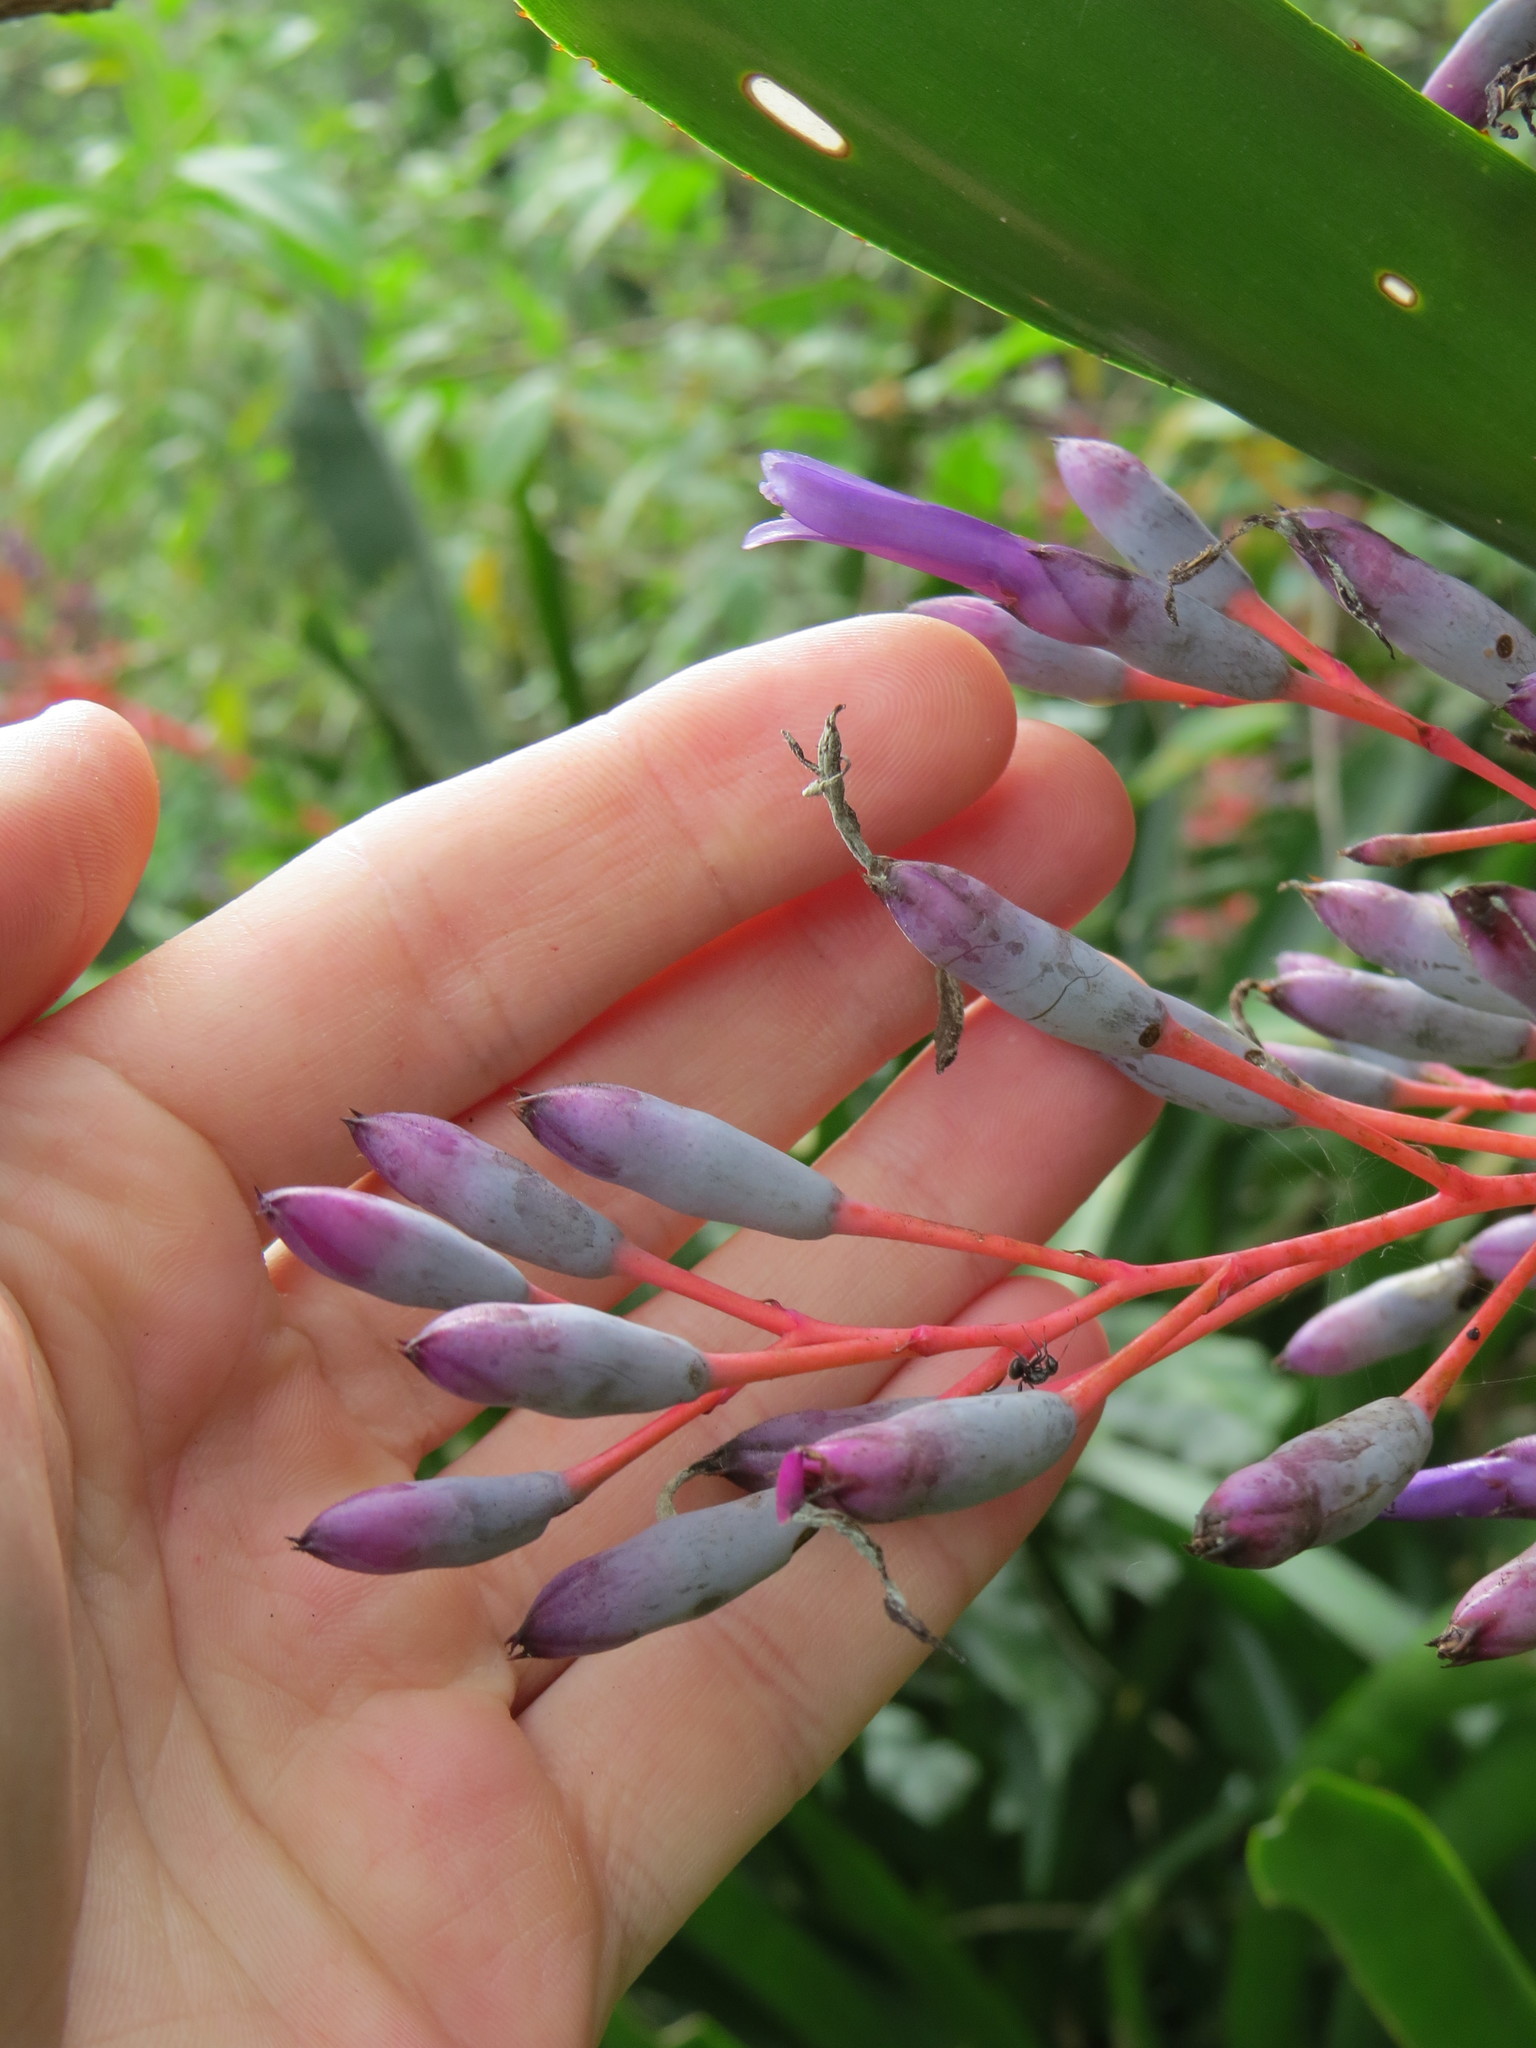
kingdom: Plantae
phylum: Tracheophyta
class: Liliopsida
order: Poales
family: Bromeliaceae
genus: Portea
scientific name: Portea petropolitana
